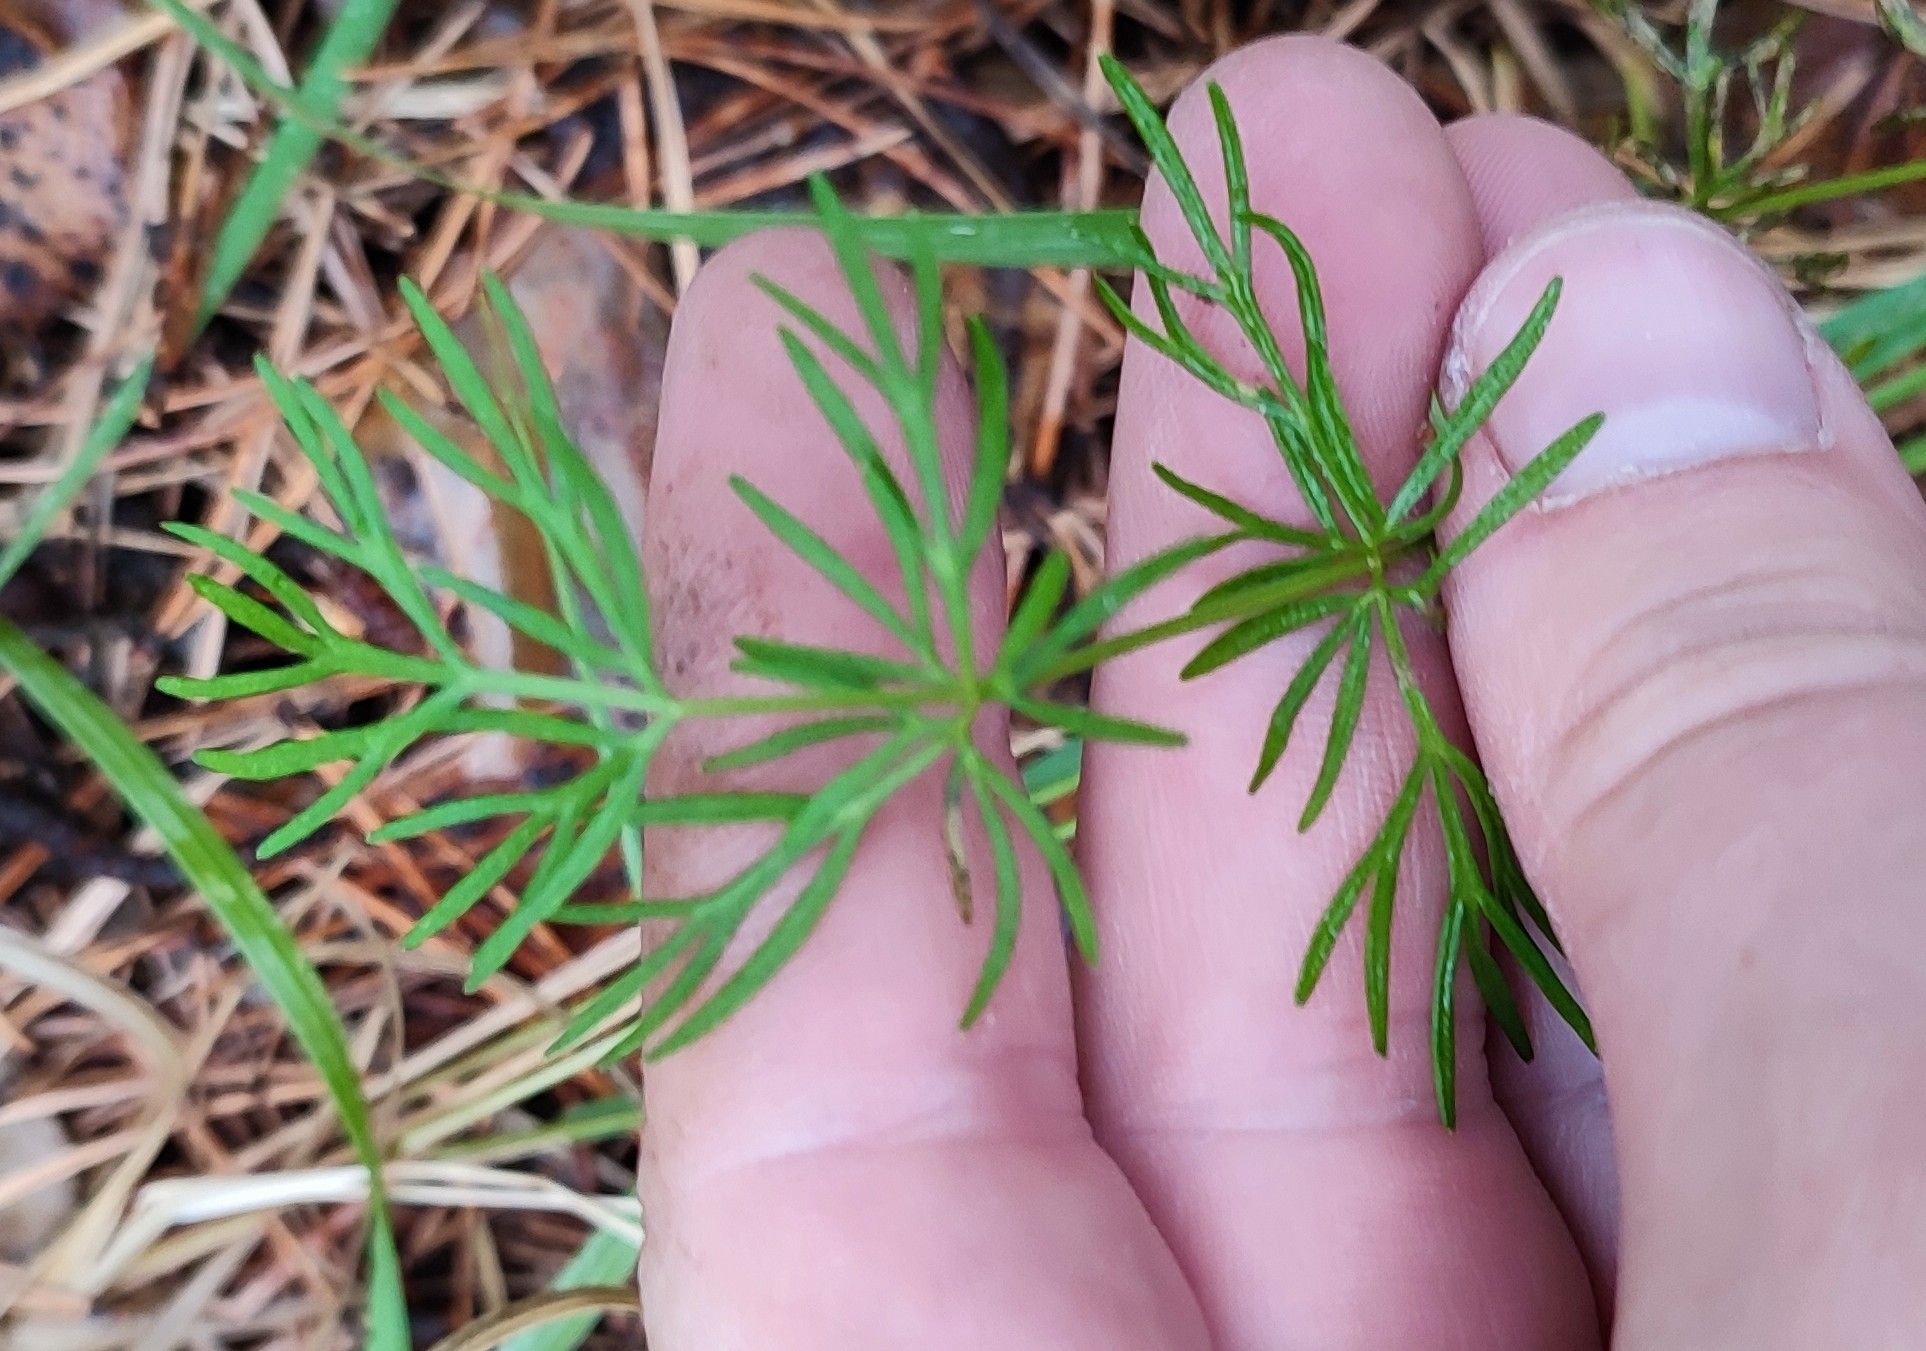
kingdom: Plantae
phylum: Tracheophyta
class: Magnoliopsida
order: Apiales
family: Apiaceae
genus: Kadenia
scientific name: Kadenia dubia
